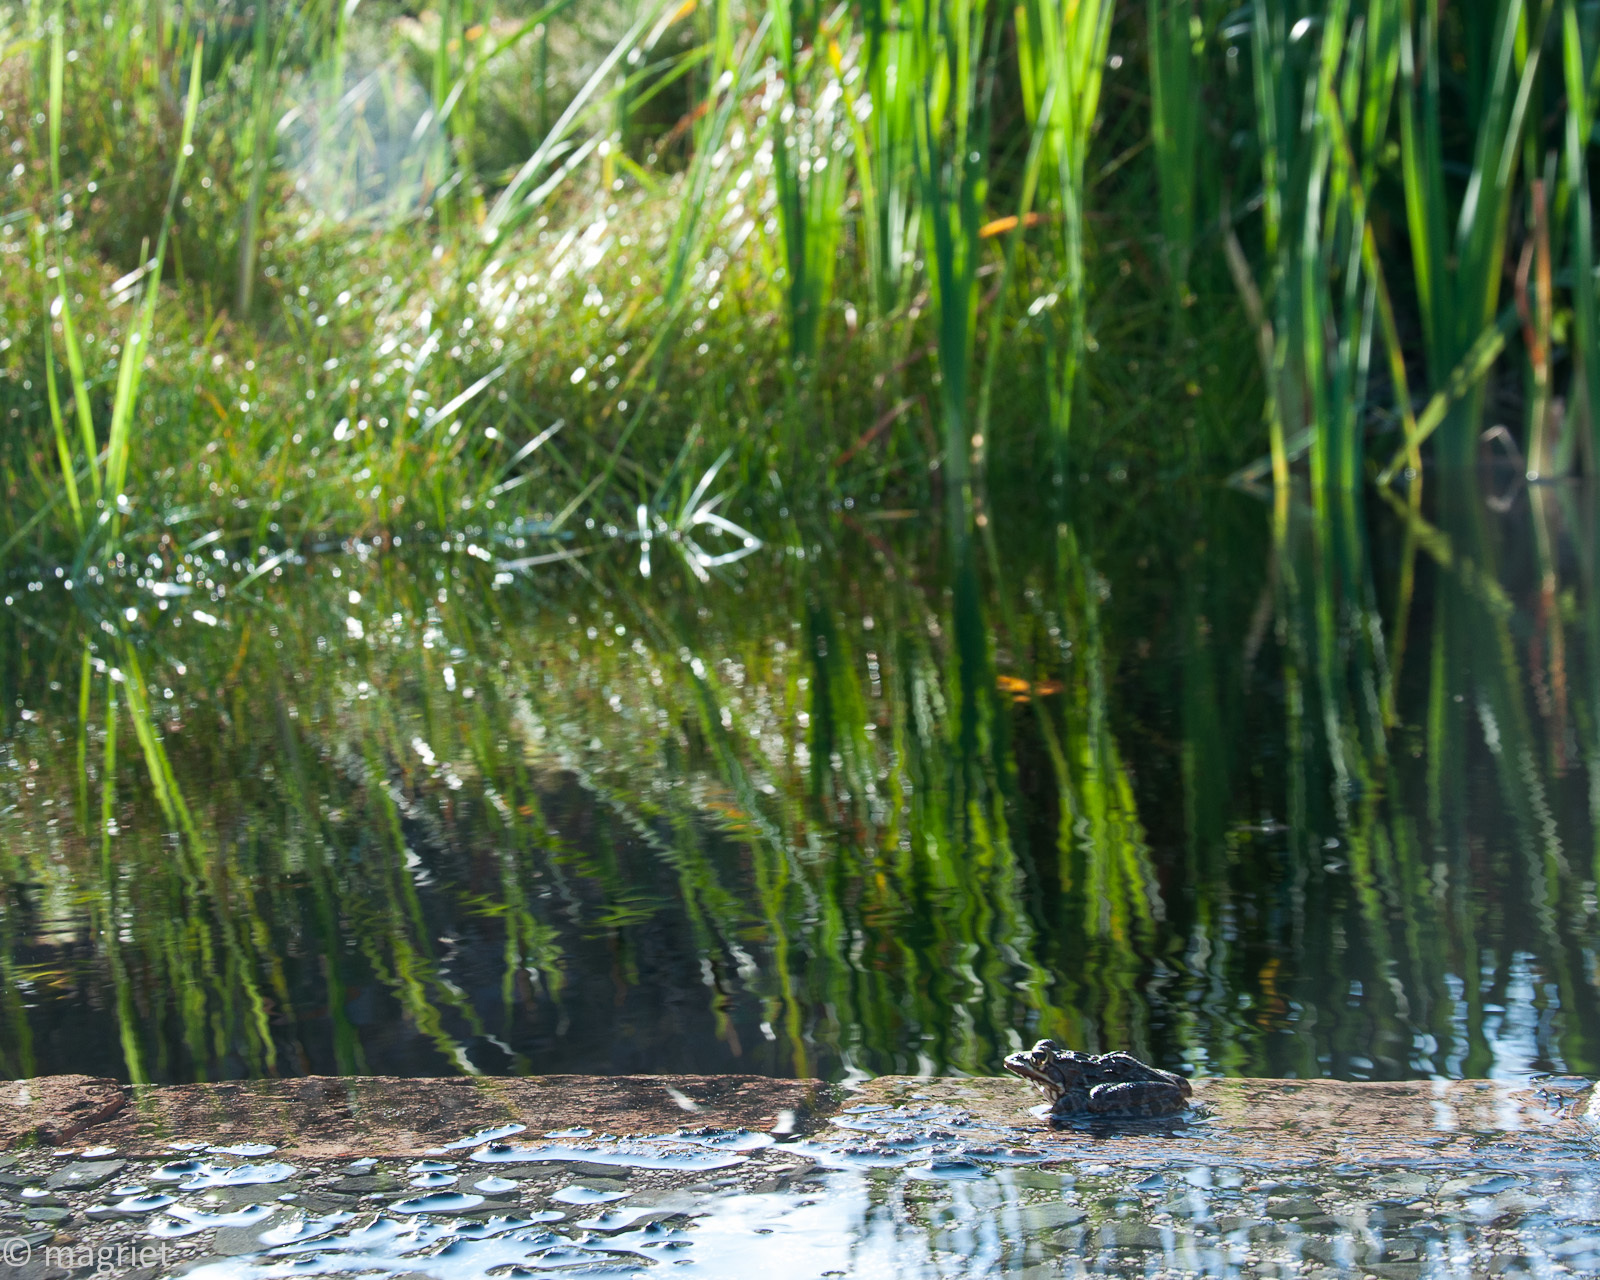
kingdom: Animalia
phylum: Chordata
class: Amphibia
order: Anura
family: Pyxicephalidae
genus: Amietia
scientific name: Amietia fuscigula
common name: Cape rana
